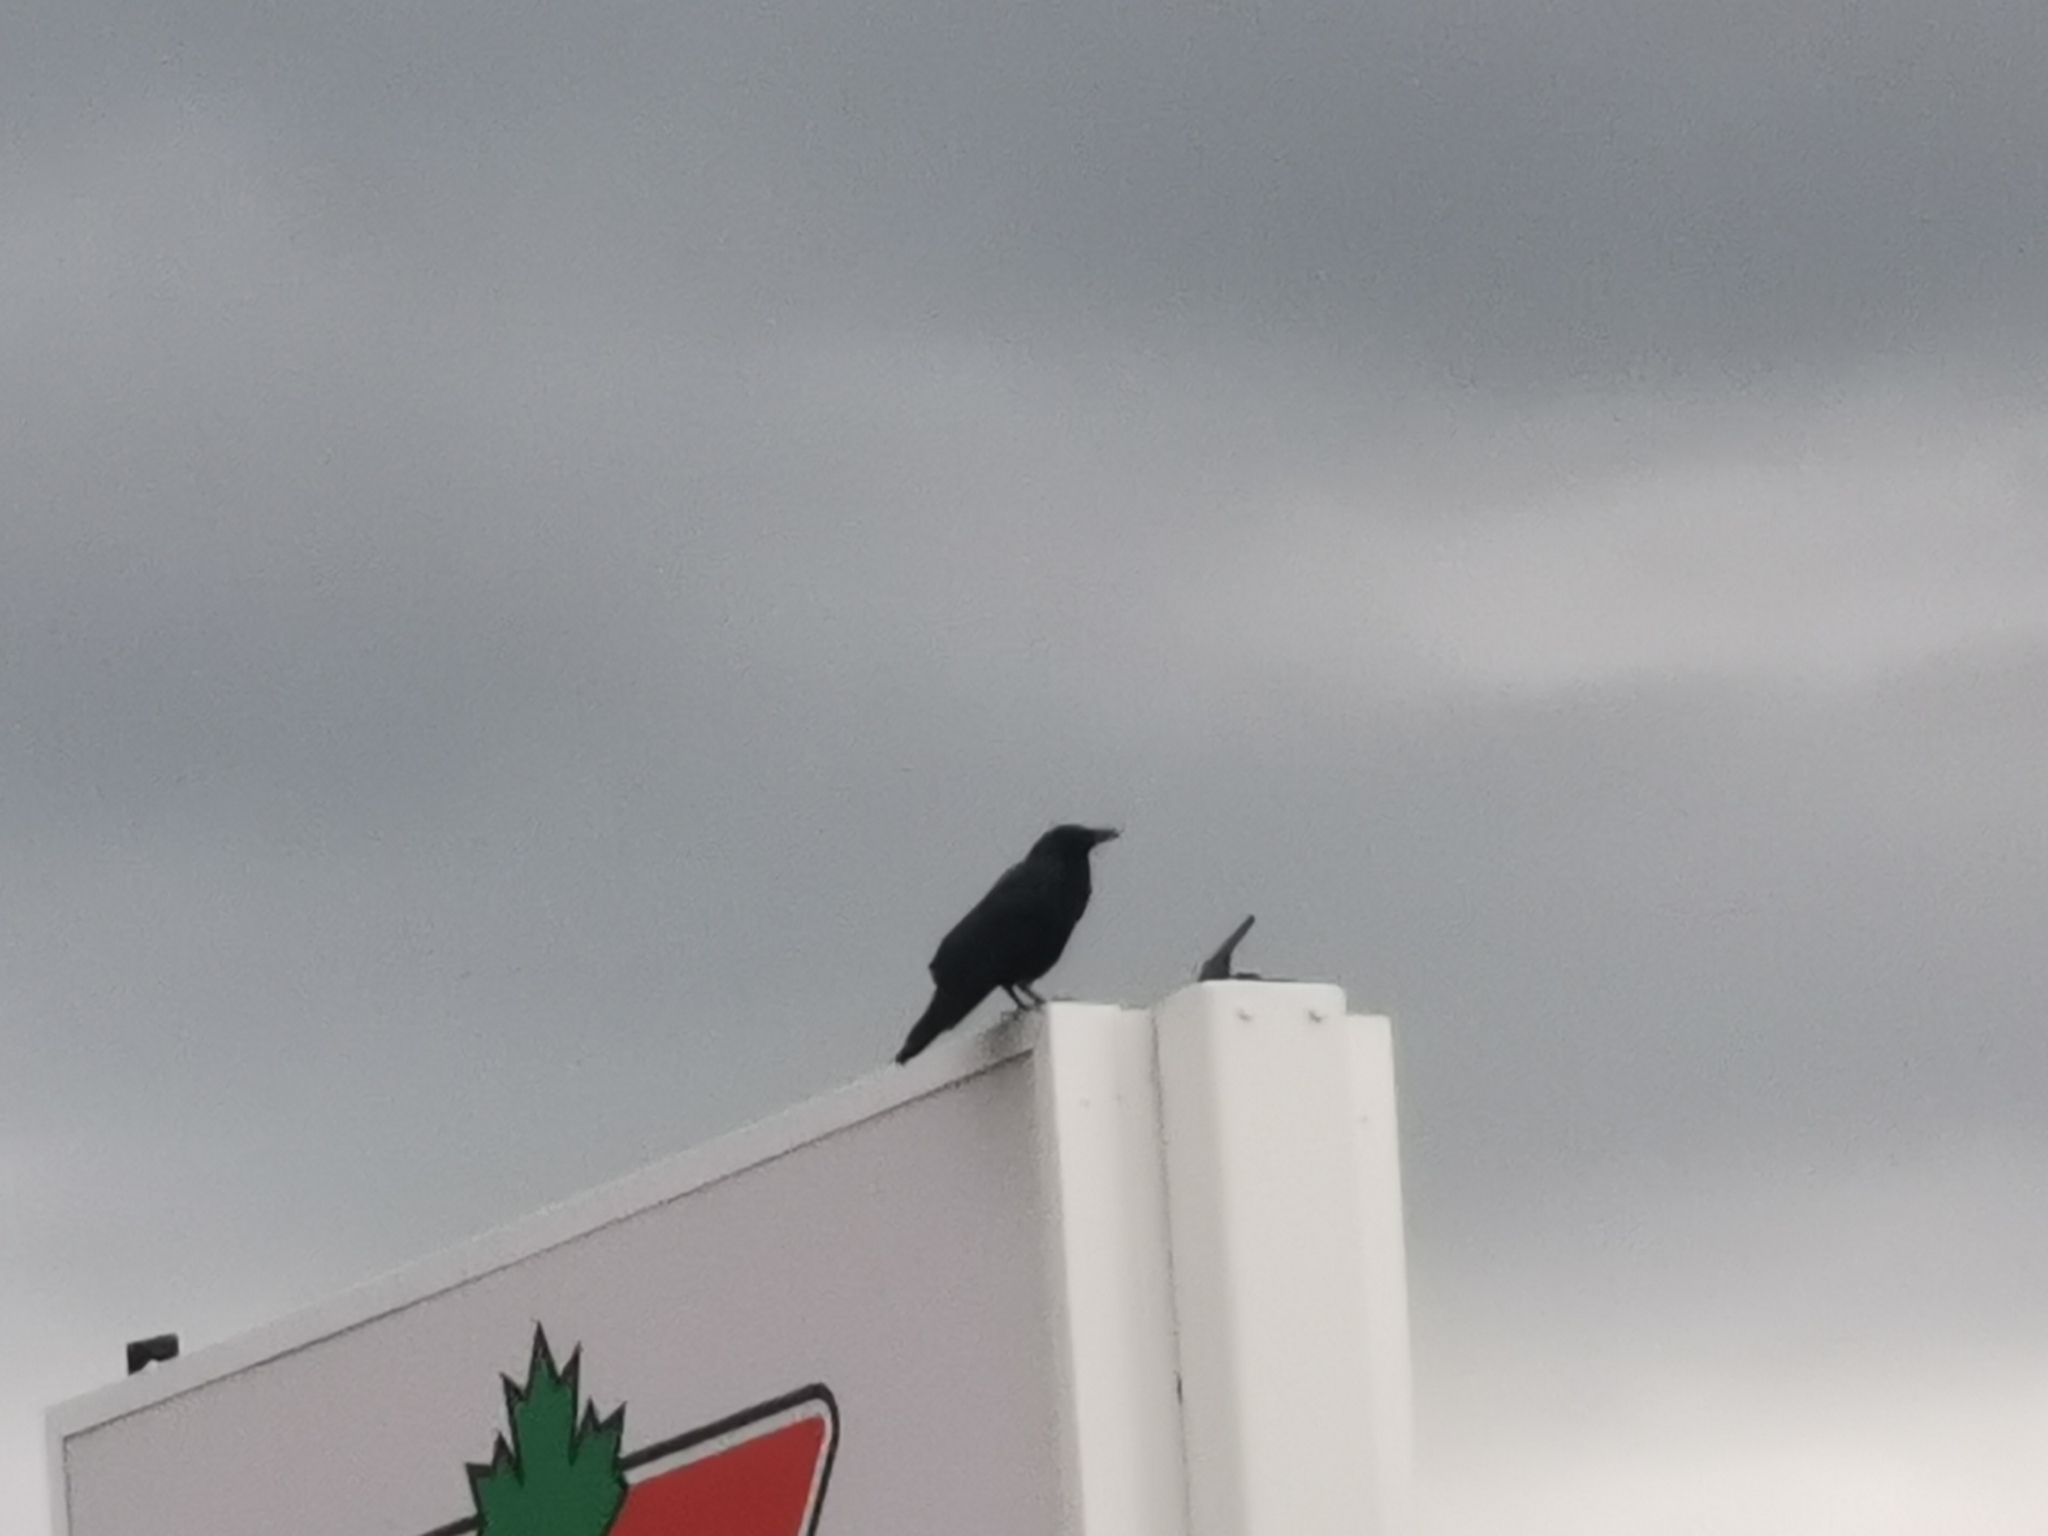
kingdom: Animalia
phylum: Chordata
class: Aves
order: Passeriformes
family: Corvidae
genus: Corvus
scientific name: Corvus brachyrhynchos
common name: American crow
